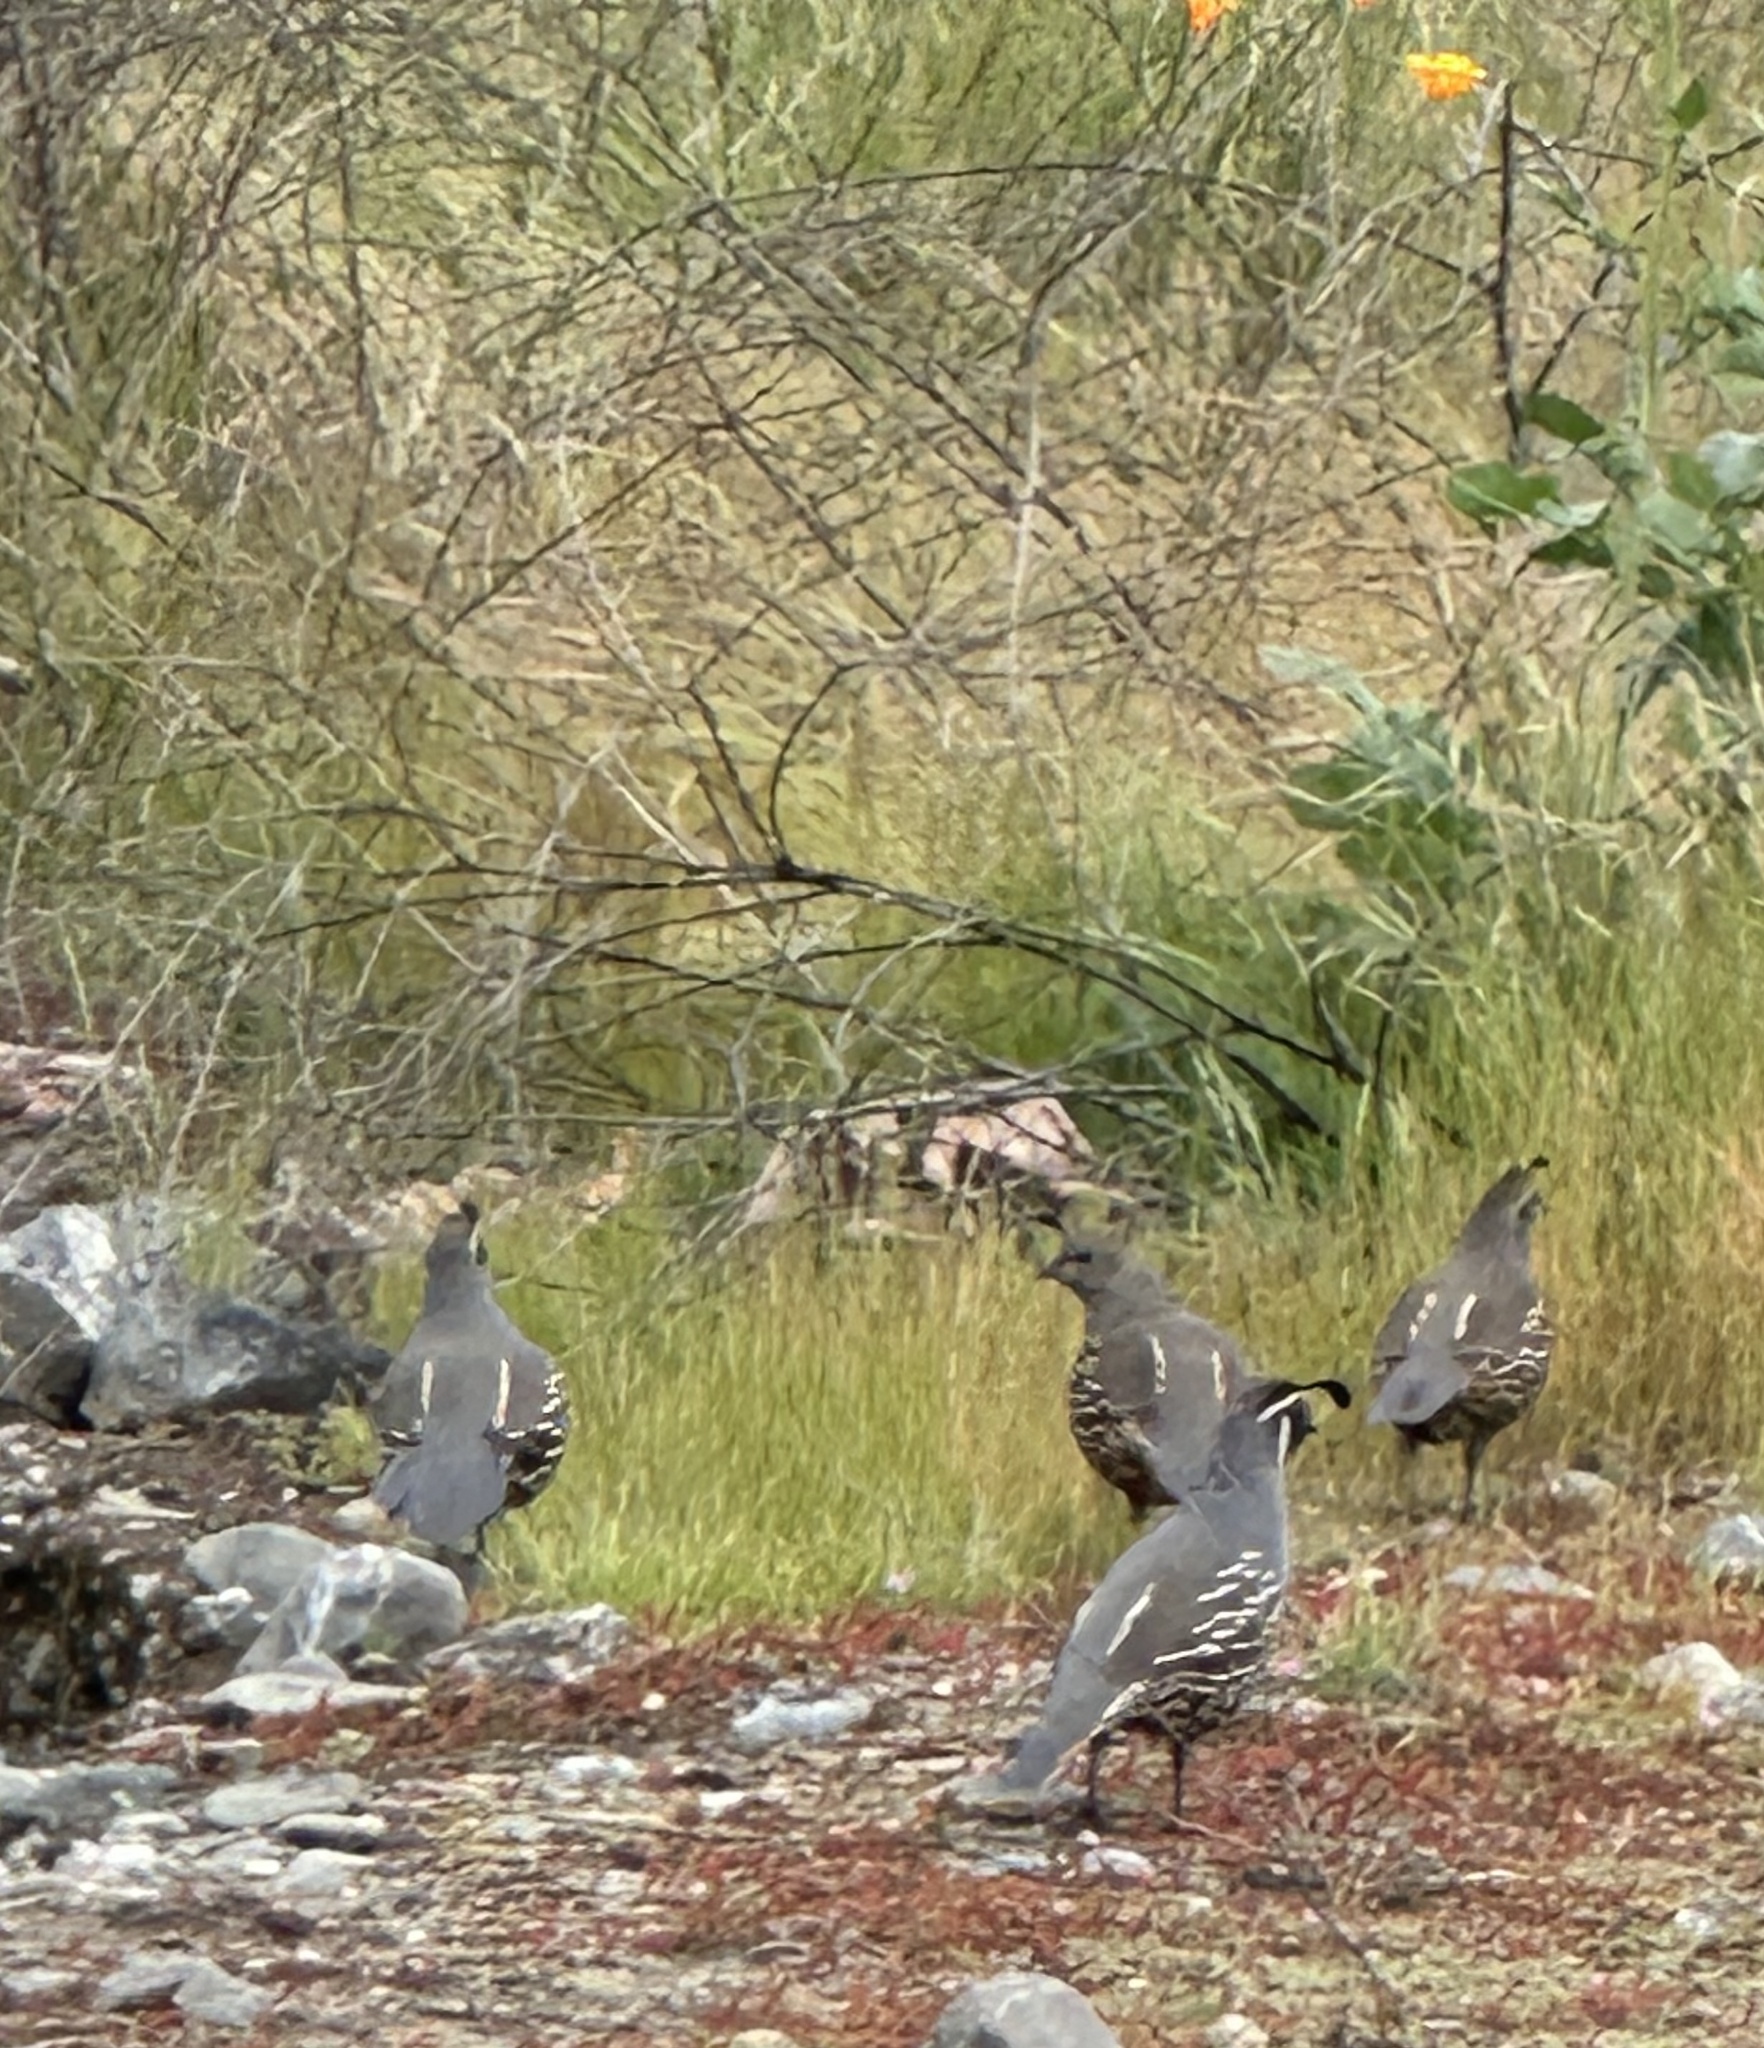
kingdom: Animalia
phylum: Chordata
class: Aves
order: Galliformes
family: Odontophoridae
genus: Callipepla
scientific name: Callipepla californica
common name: California quail
